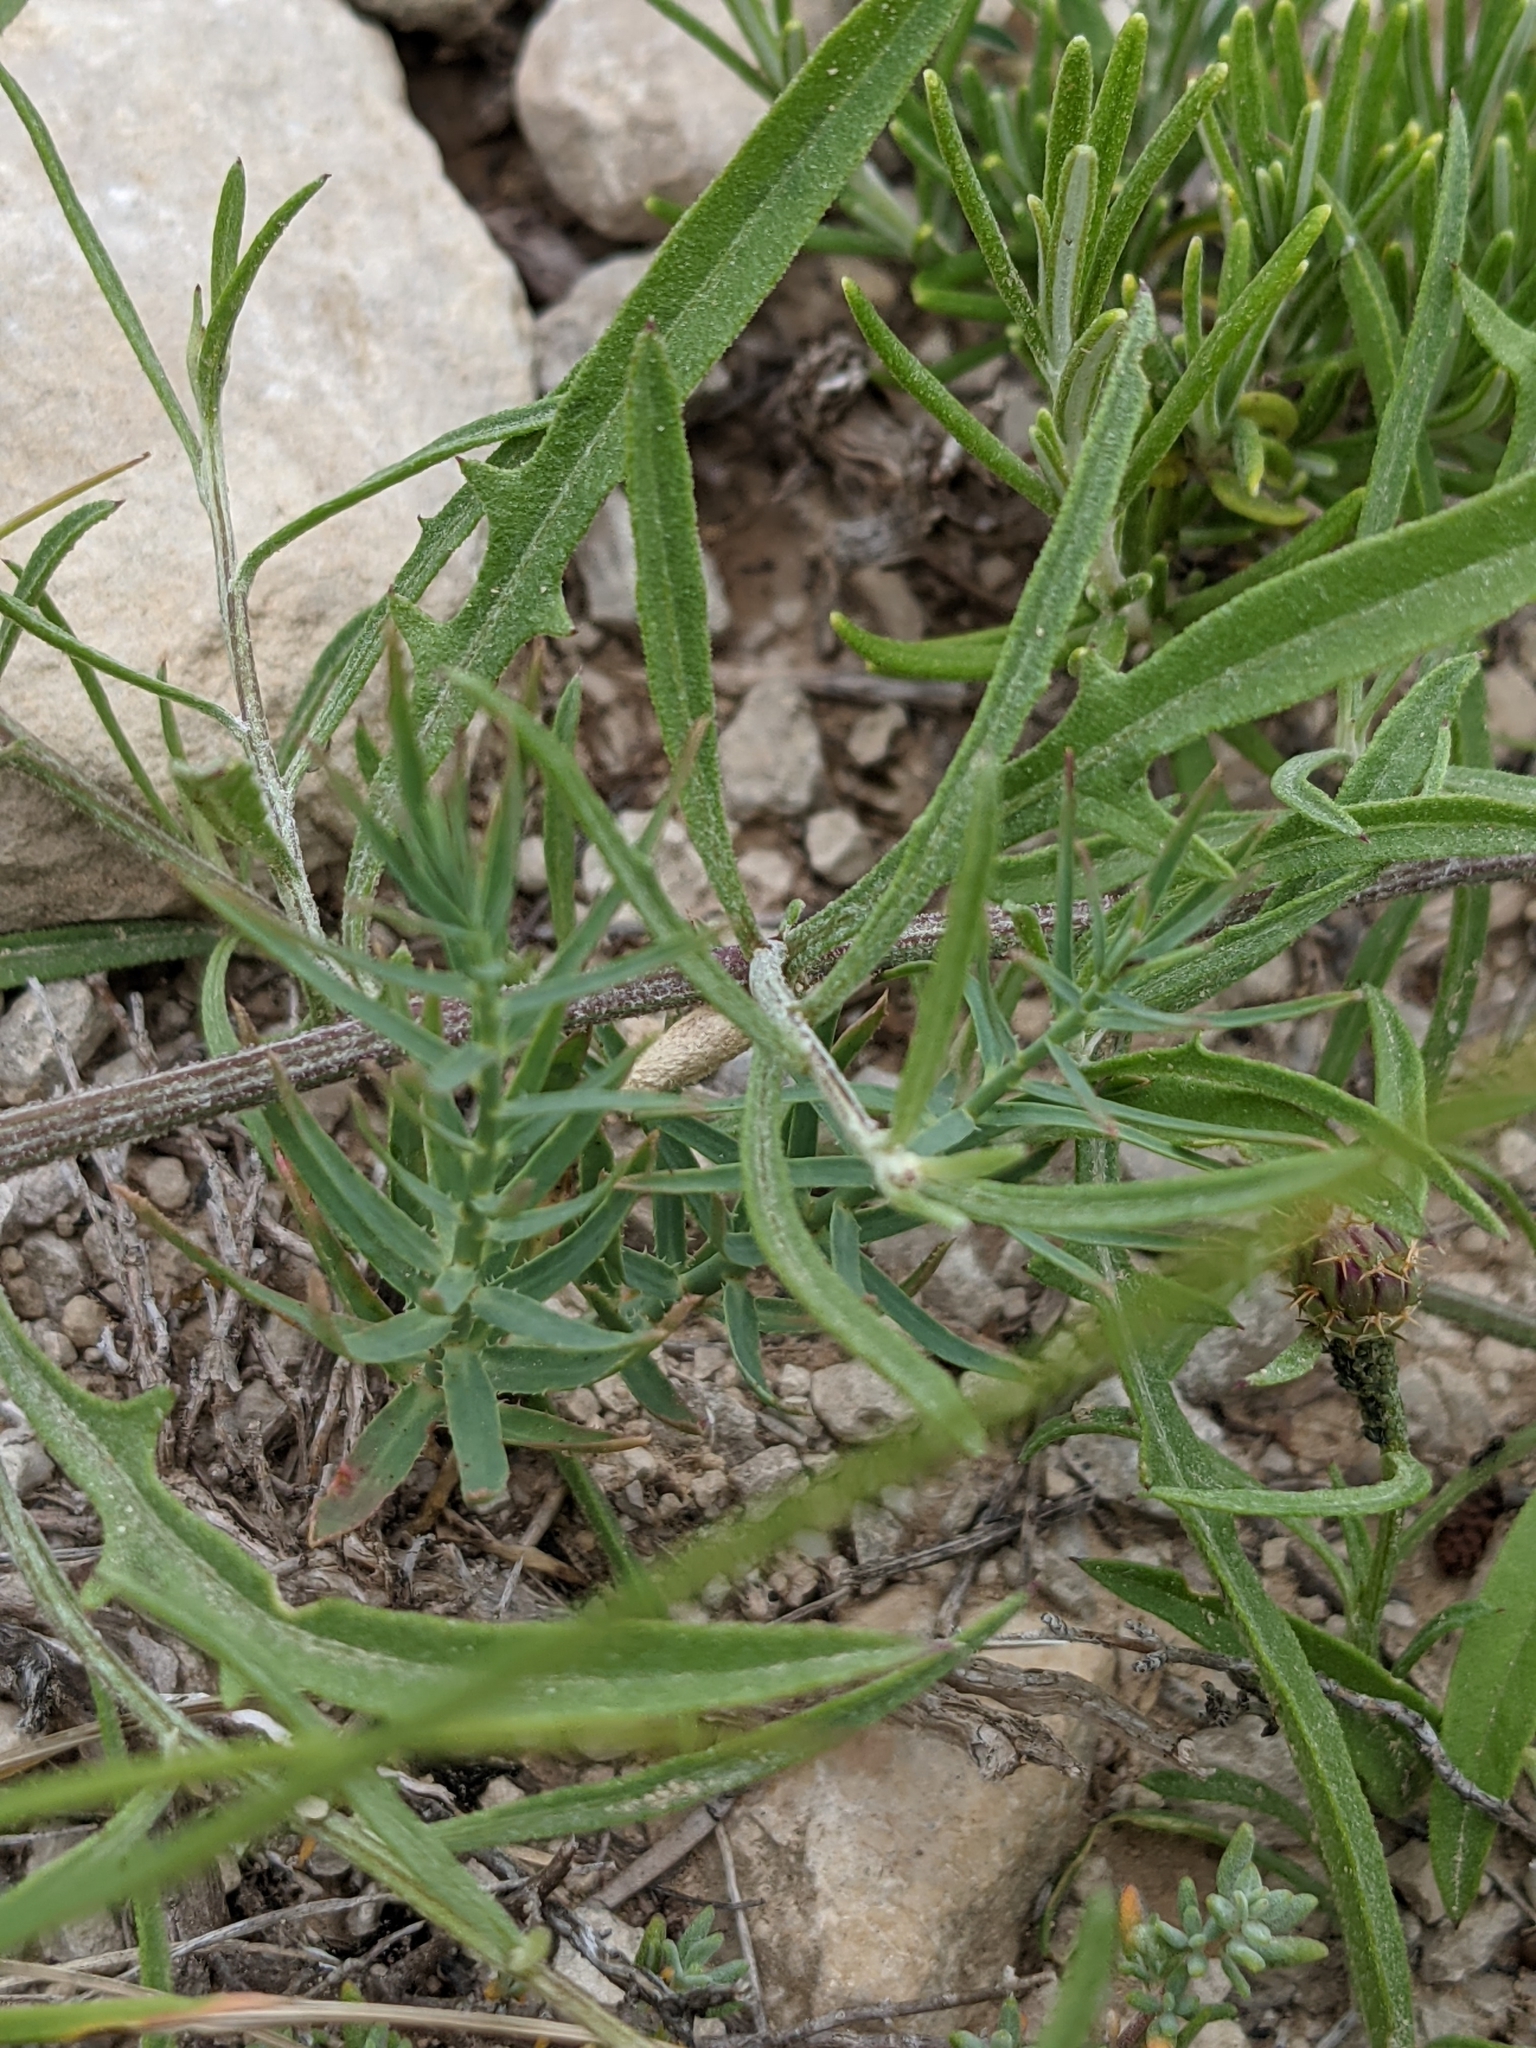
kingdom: Plantae
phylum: Tracheophyta
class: Magnoliopsida
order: Asterales
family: Asteraceae
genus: Centaurea
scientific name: Centaurea aspera
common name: Rough star-thistle
